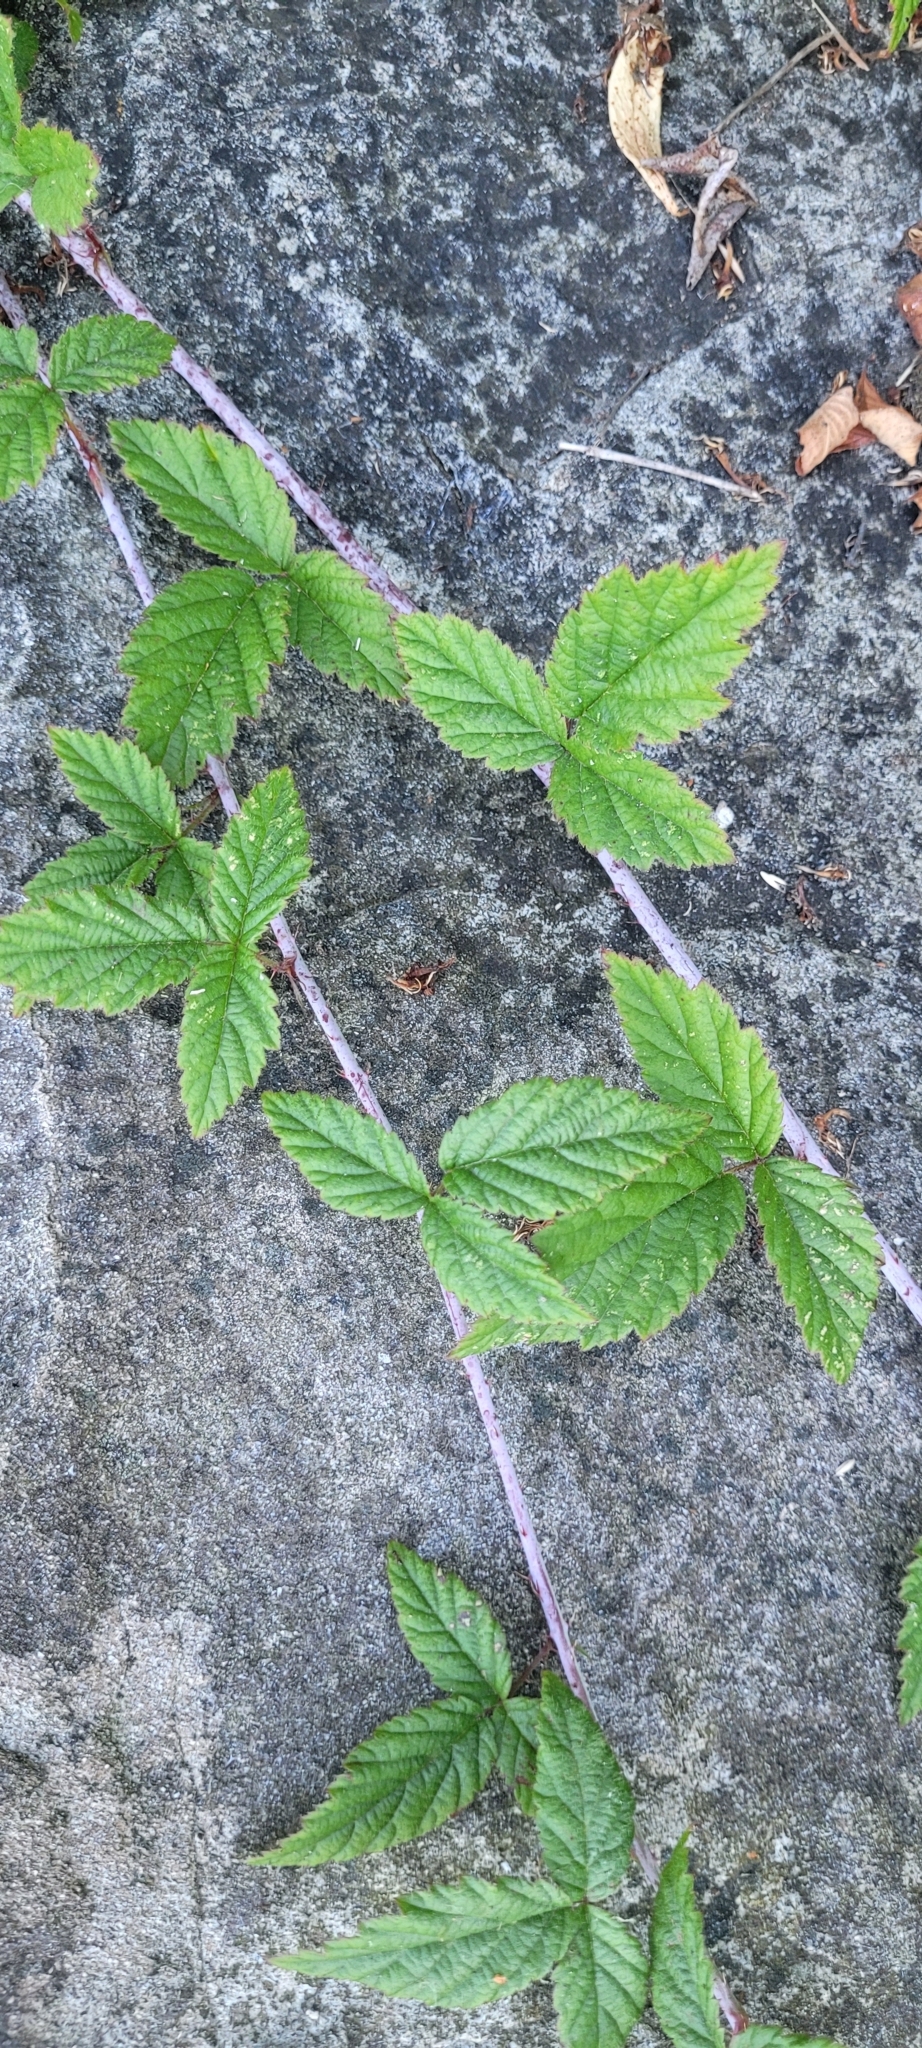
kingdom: Plantae
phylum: Tracheophyta
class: Magnoliopsida
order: Rosales
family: Rosaceae
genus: Rubus
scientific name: Rubus ursinus
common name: Pacific blackberry
